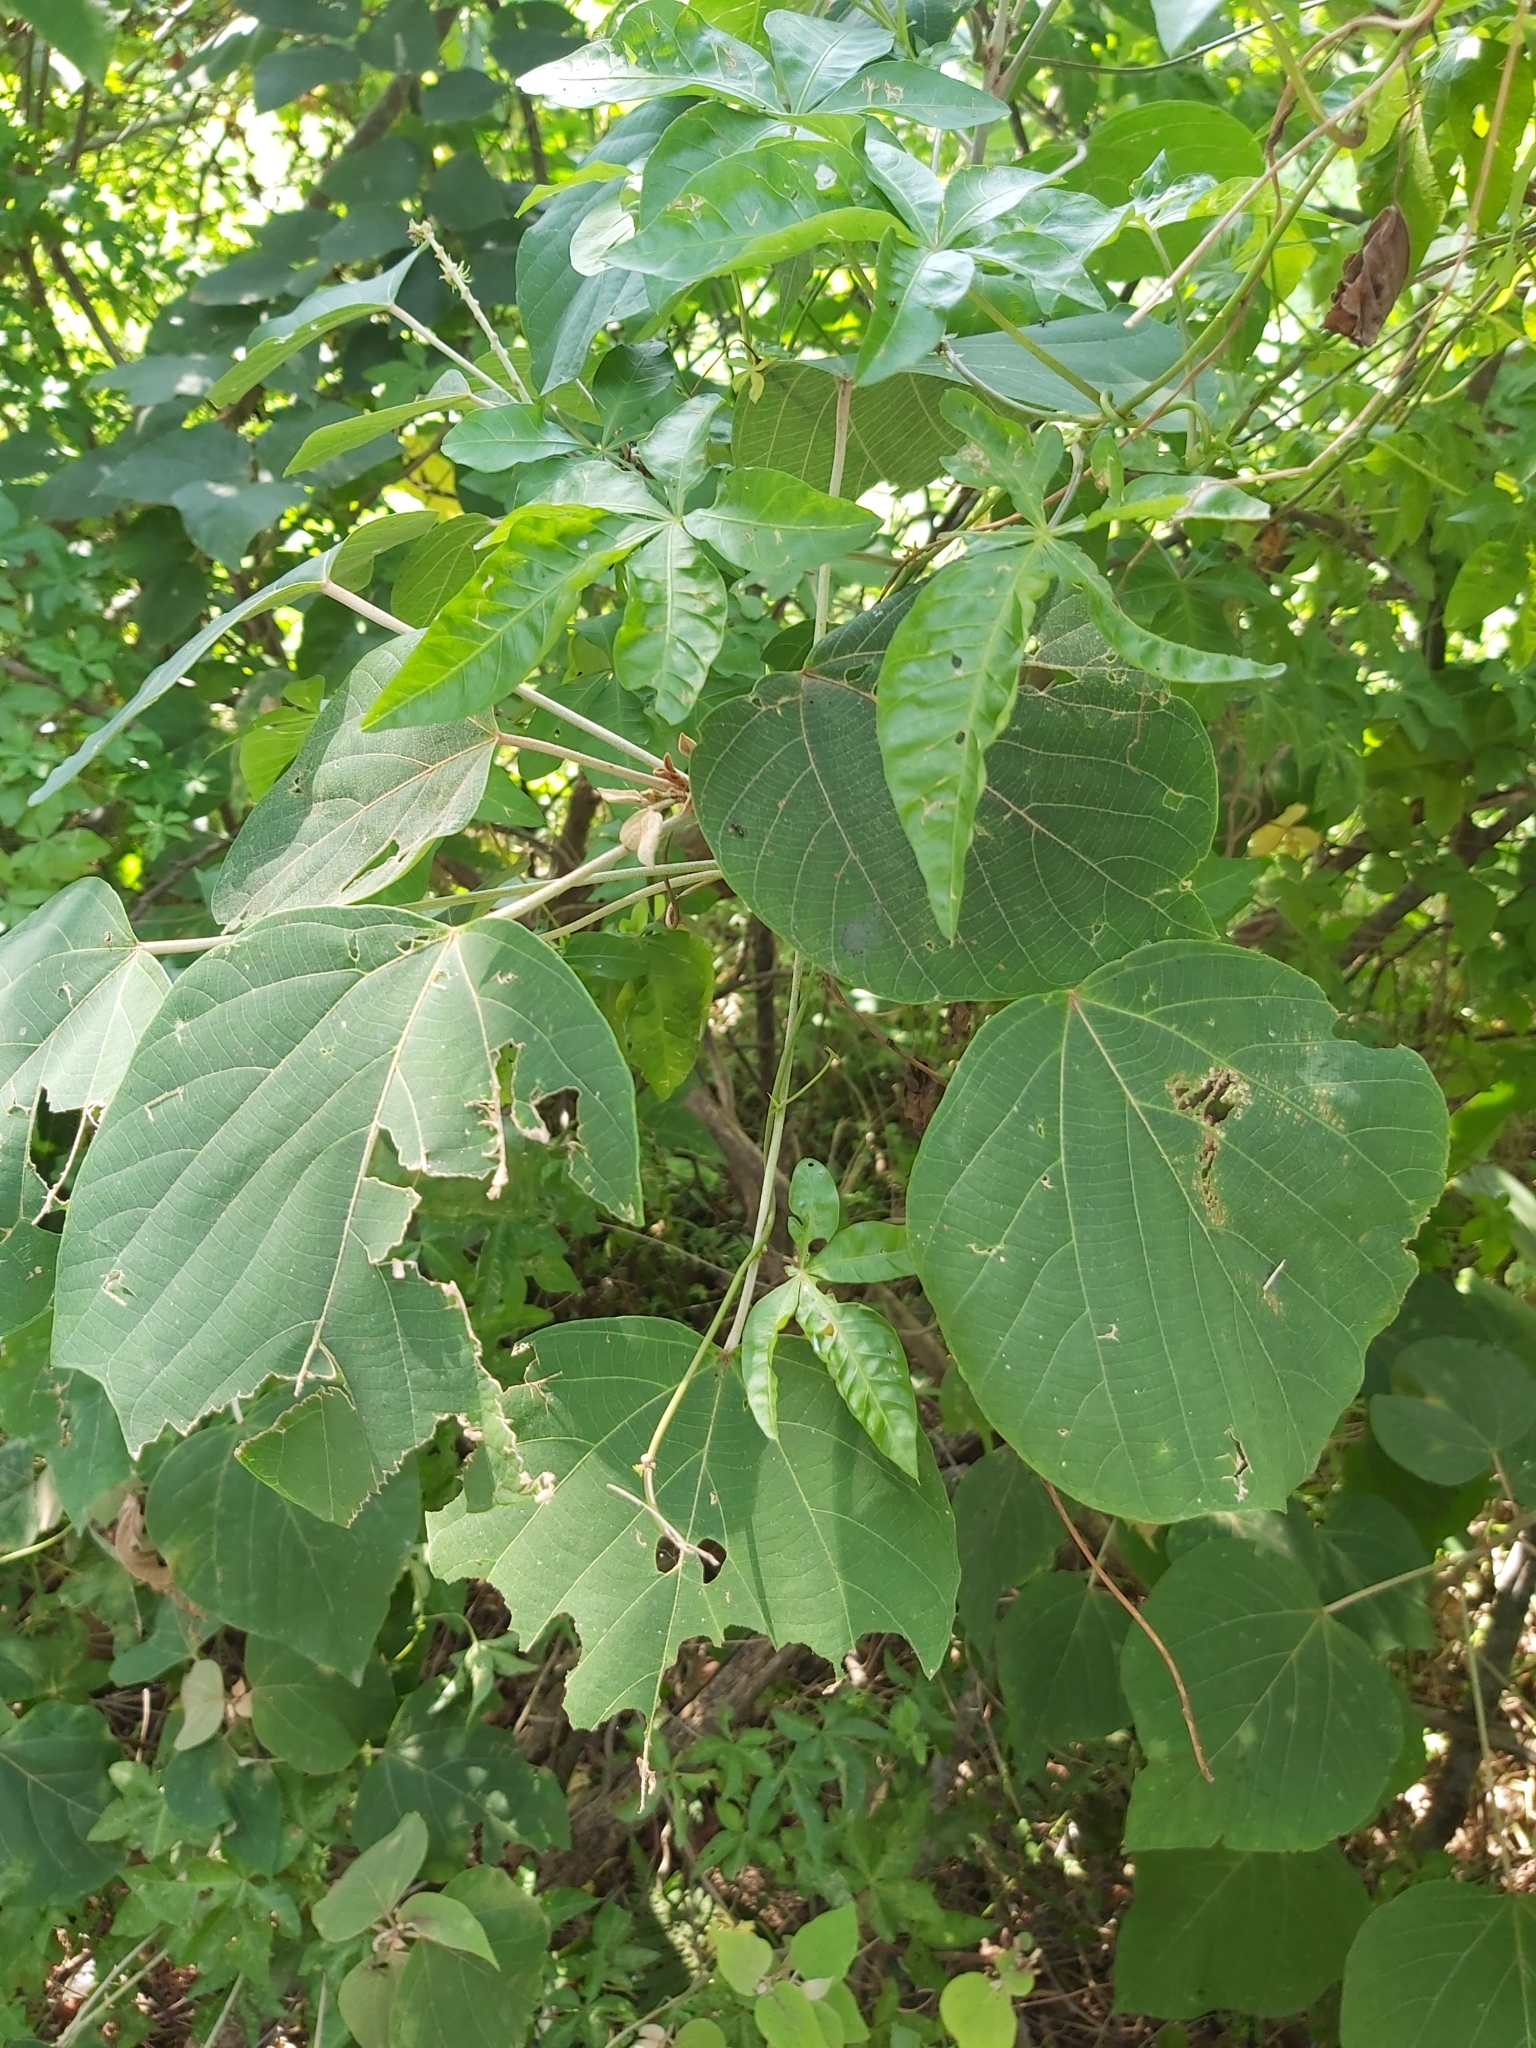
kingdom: Plantae
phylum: Tracheophyta
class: Magnoliopsida
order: Malpighiales
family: Euphorbiaceae
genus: Mallotus
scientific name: Mallotus japonicus
